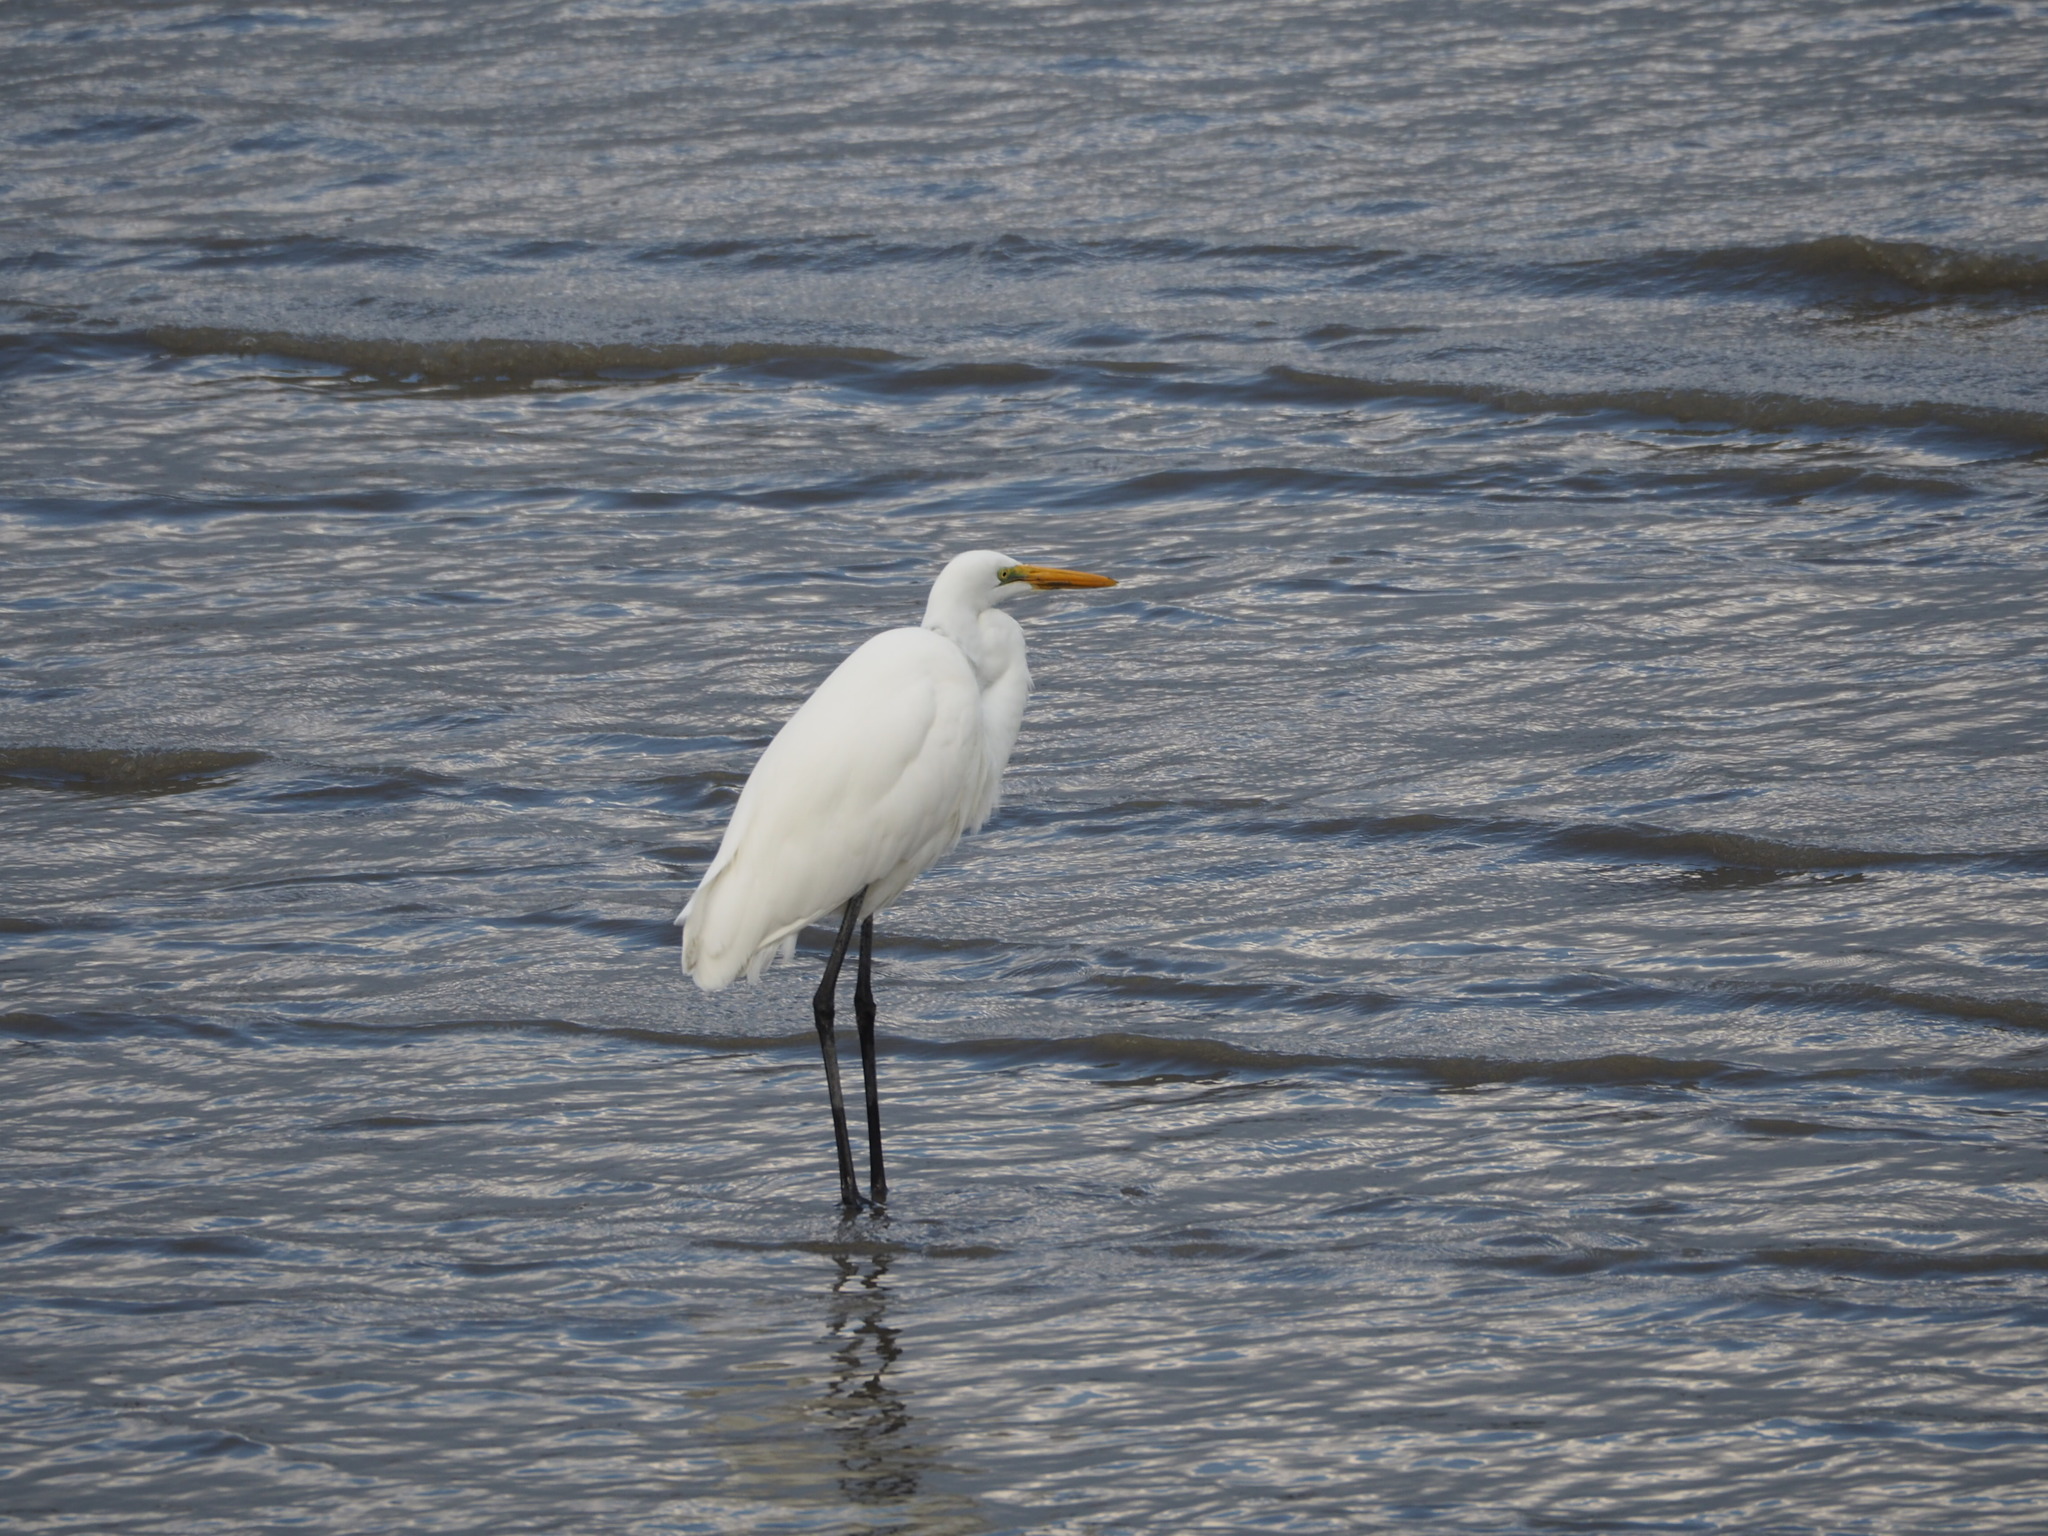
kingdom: Animalia
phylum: Chordata
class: Aves
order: Pelecaniformes
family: Ardeidae
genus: Ardea
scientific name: Ardea alba
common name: Great egret
